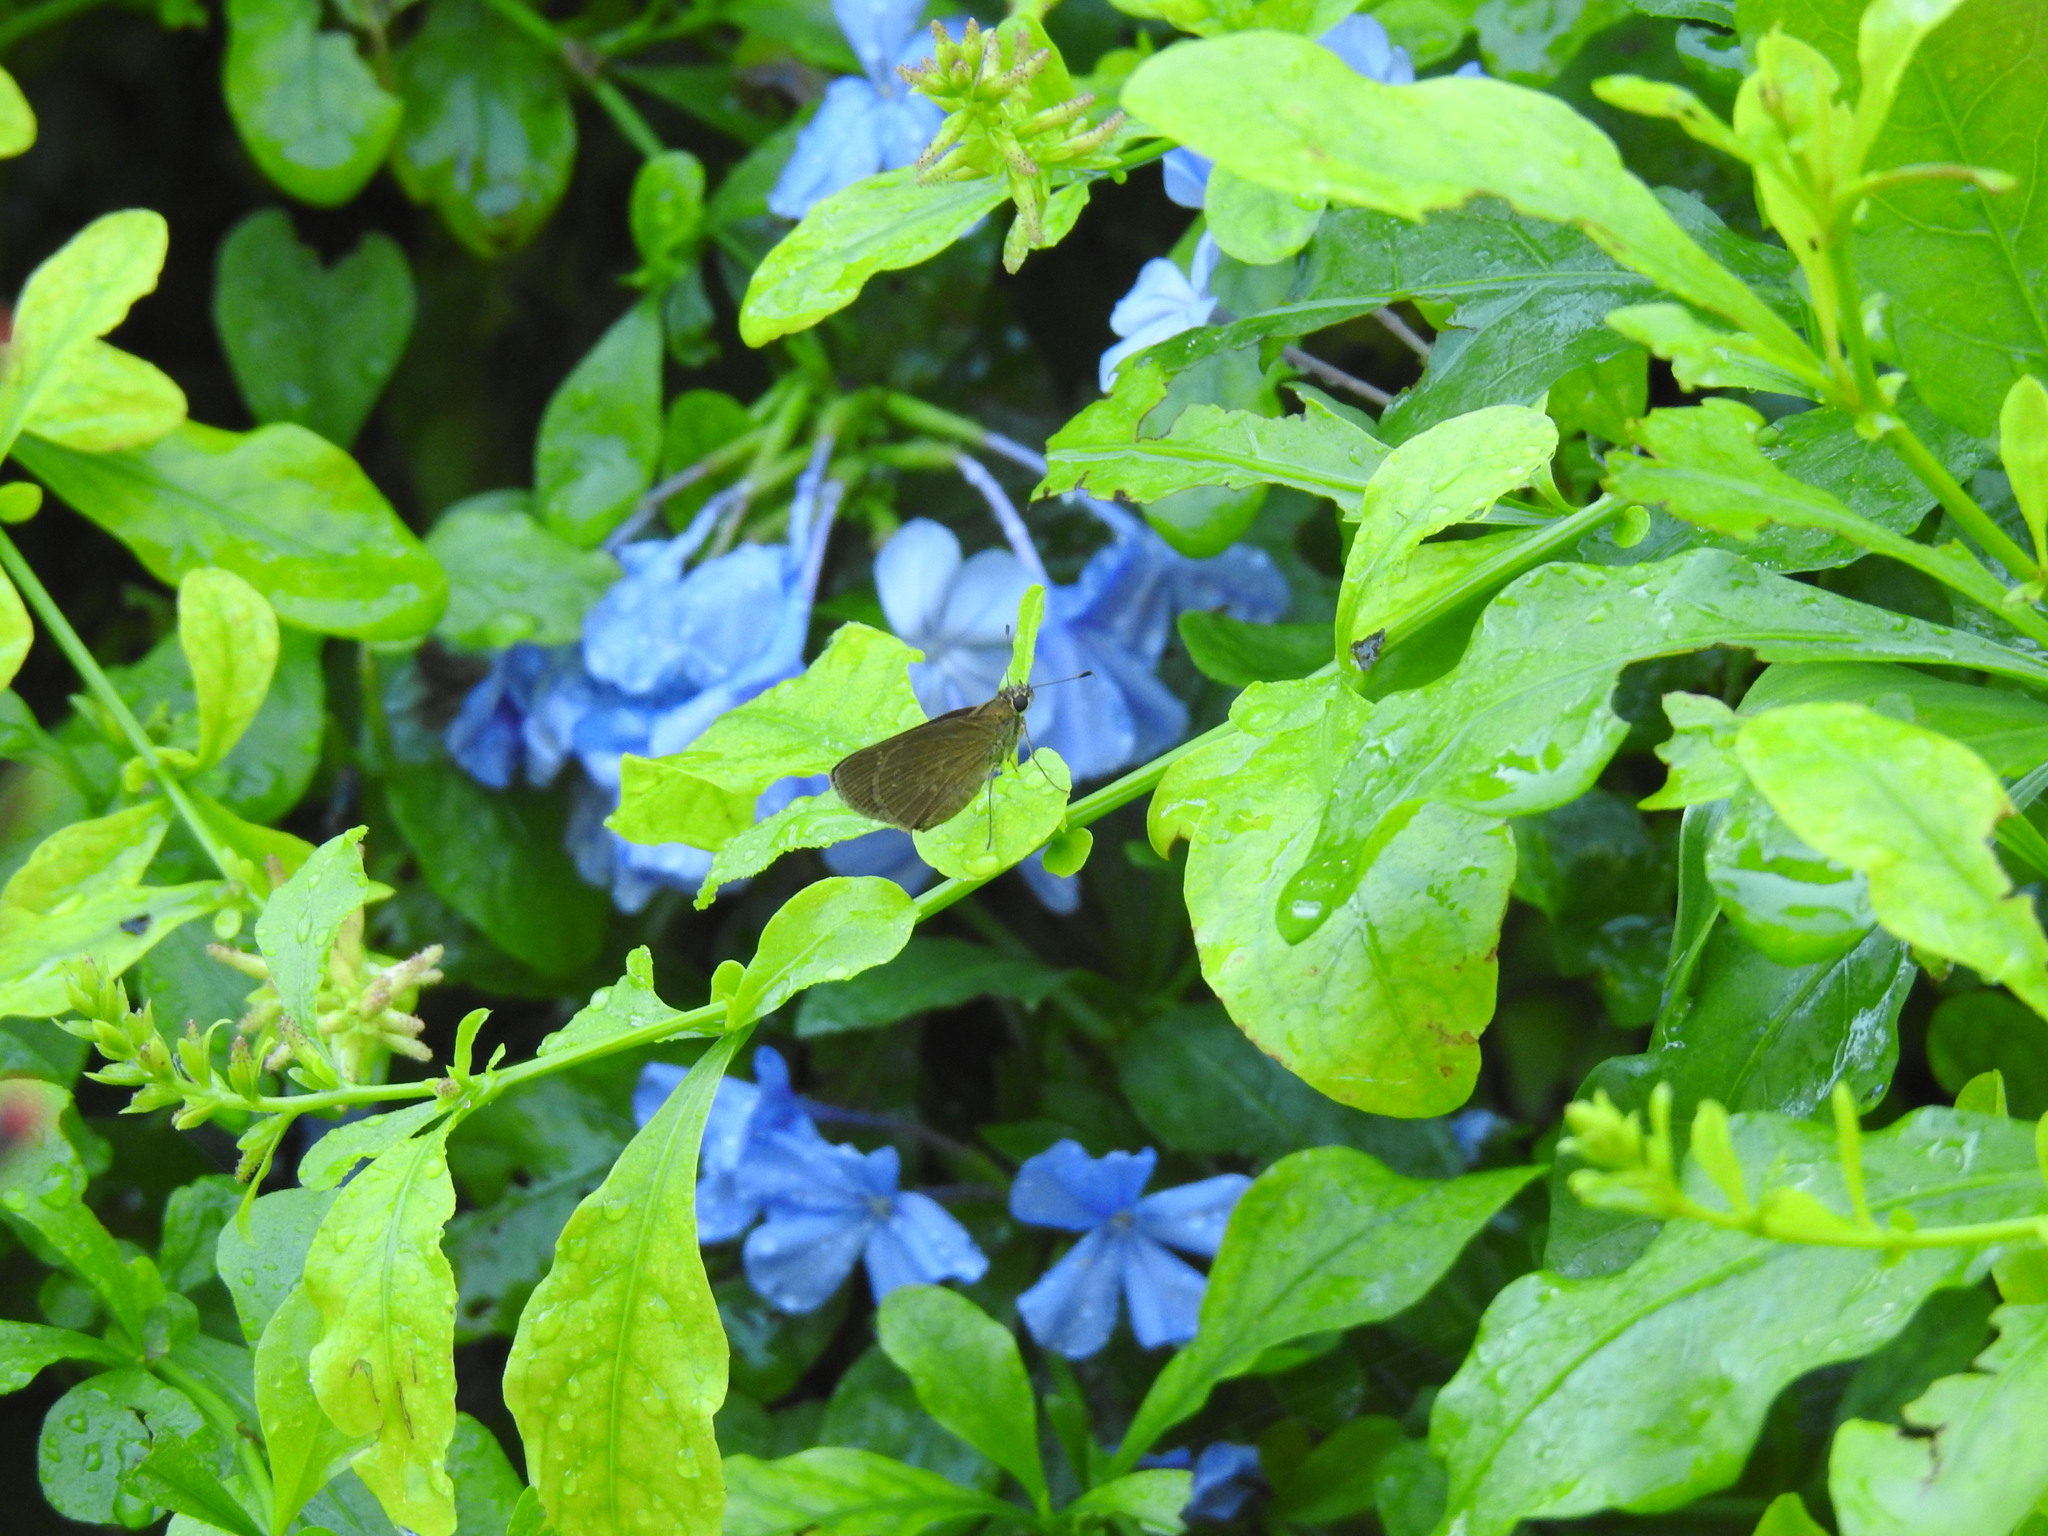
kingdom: Animalia
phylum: Arthropoda
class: Insecta
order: Lepidoptera
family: Hesperiidae
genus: Cymaenes
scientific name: Cymaenes tripunctus
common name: Dingy dotted skipper
